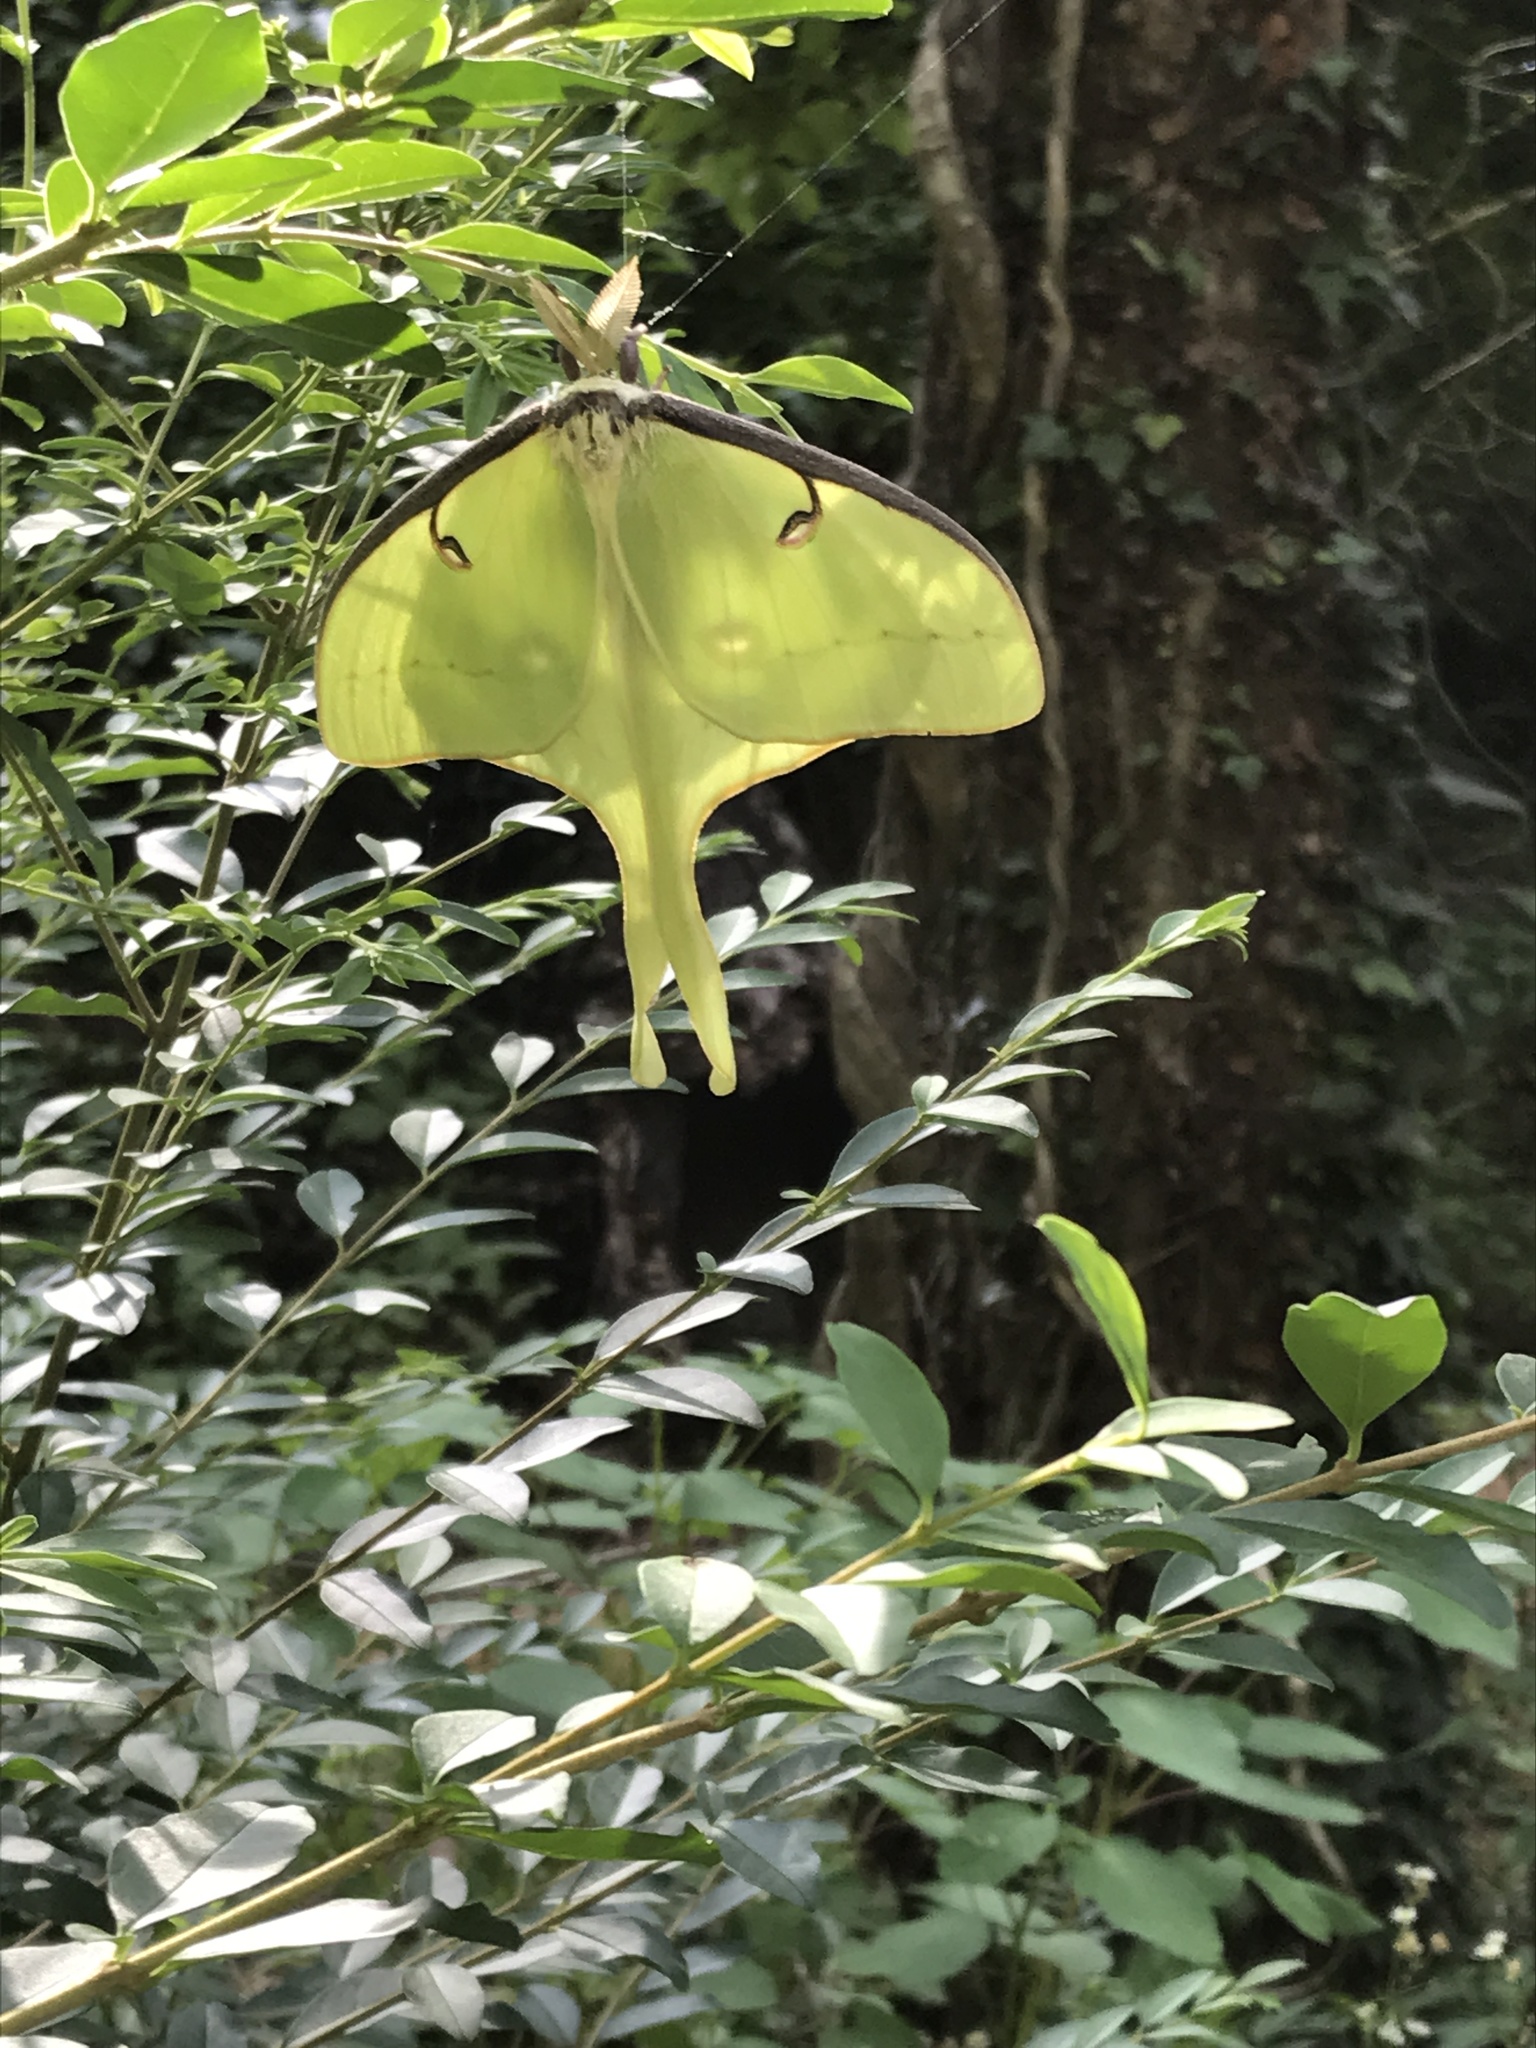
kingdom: Animalia
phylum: Arthropoda
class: Insecta
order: Lepidoptera
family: Saturniidae
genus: Actias
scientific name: Actias luna
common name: Luna moth
